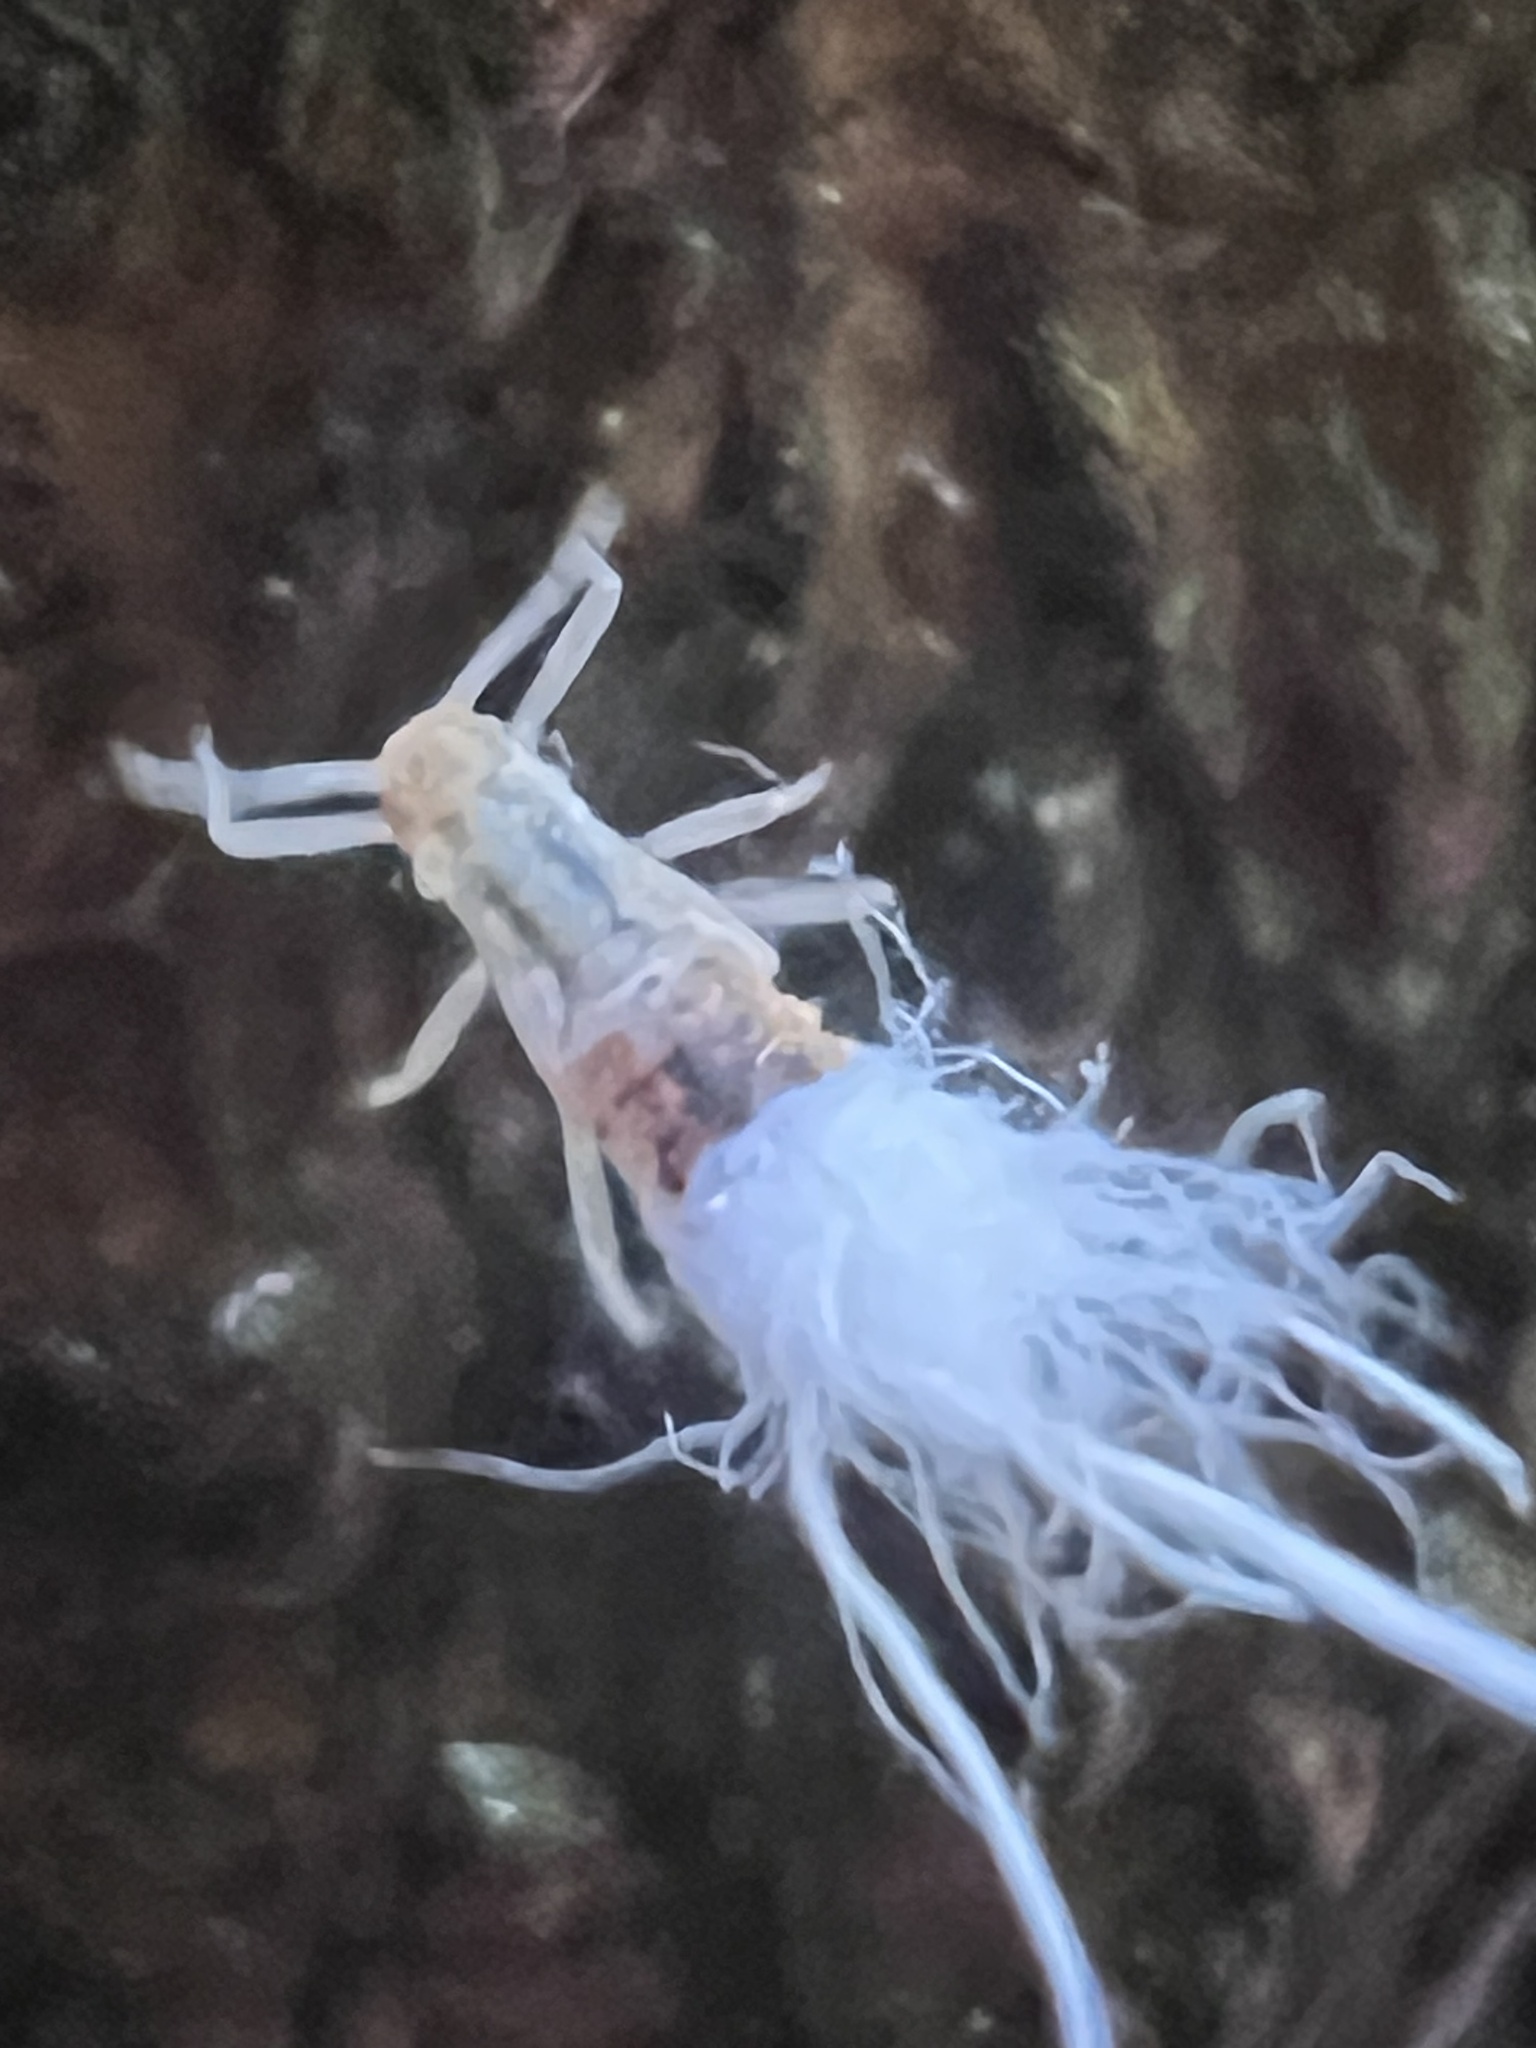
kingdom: Animalia
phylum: Arthropoda
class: Insecta
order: Hemiptera
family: Aphididae
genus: Grylloprociphilus
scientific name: Grylloprociphilus imbricator
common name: Beech blight aphid
